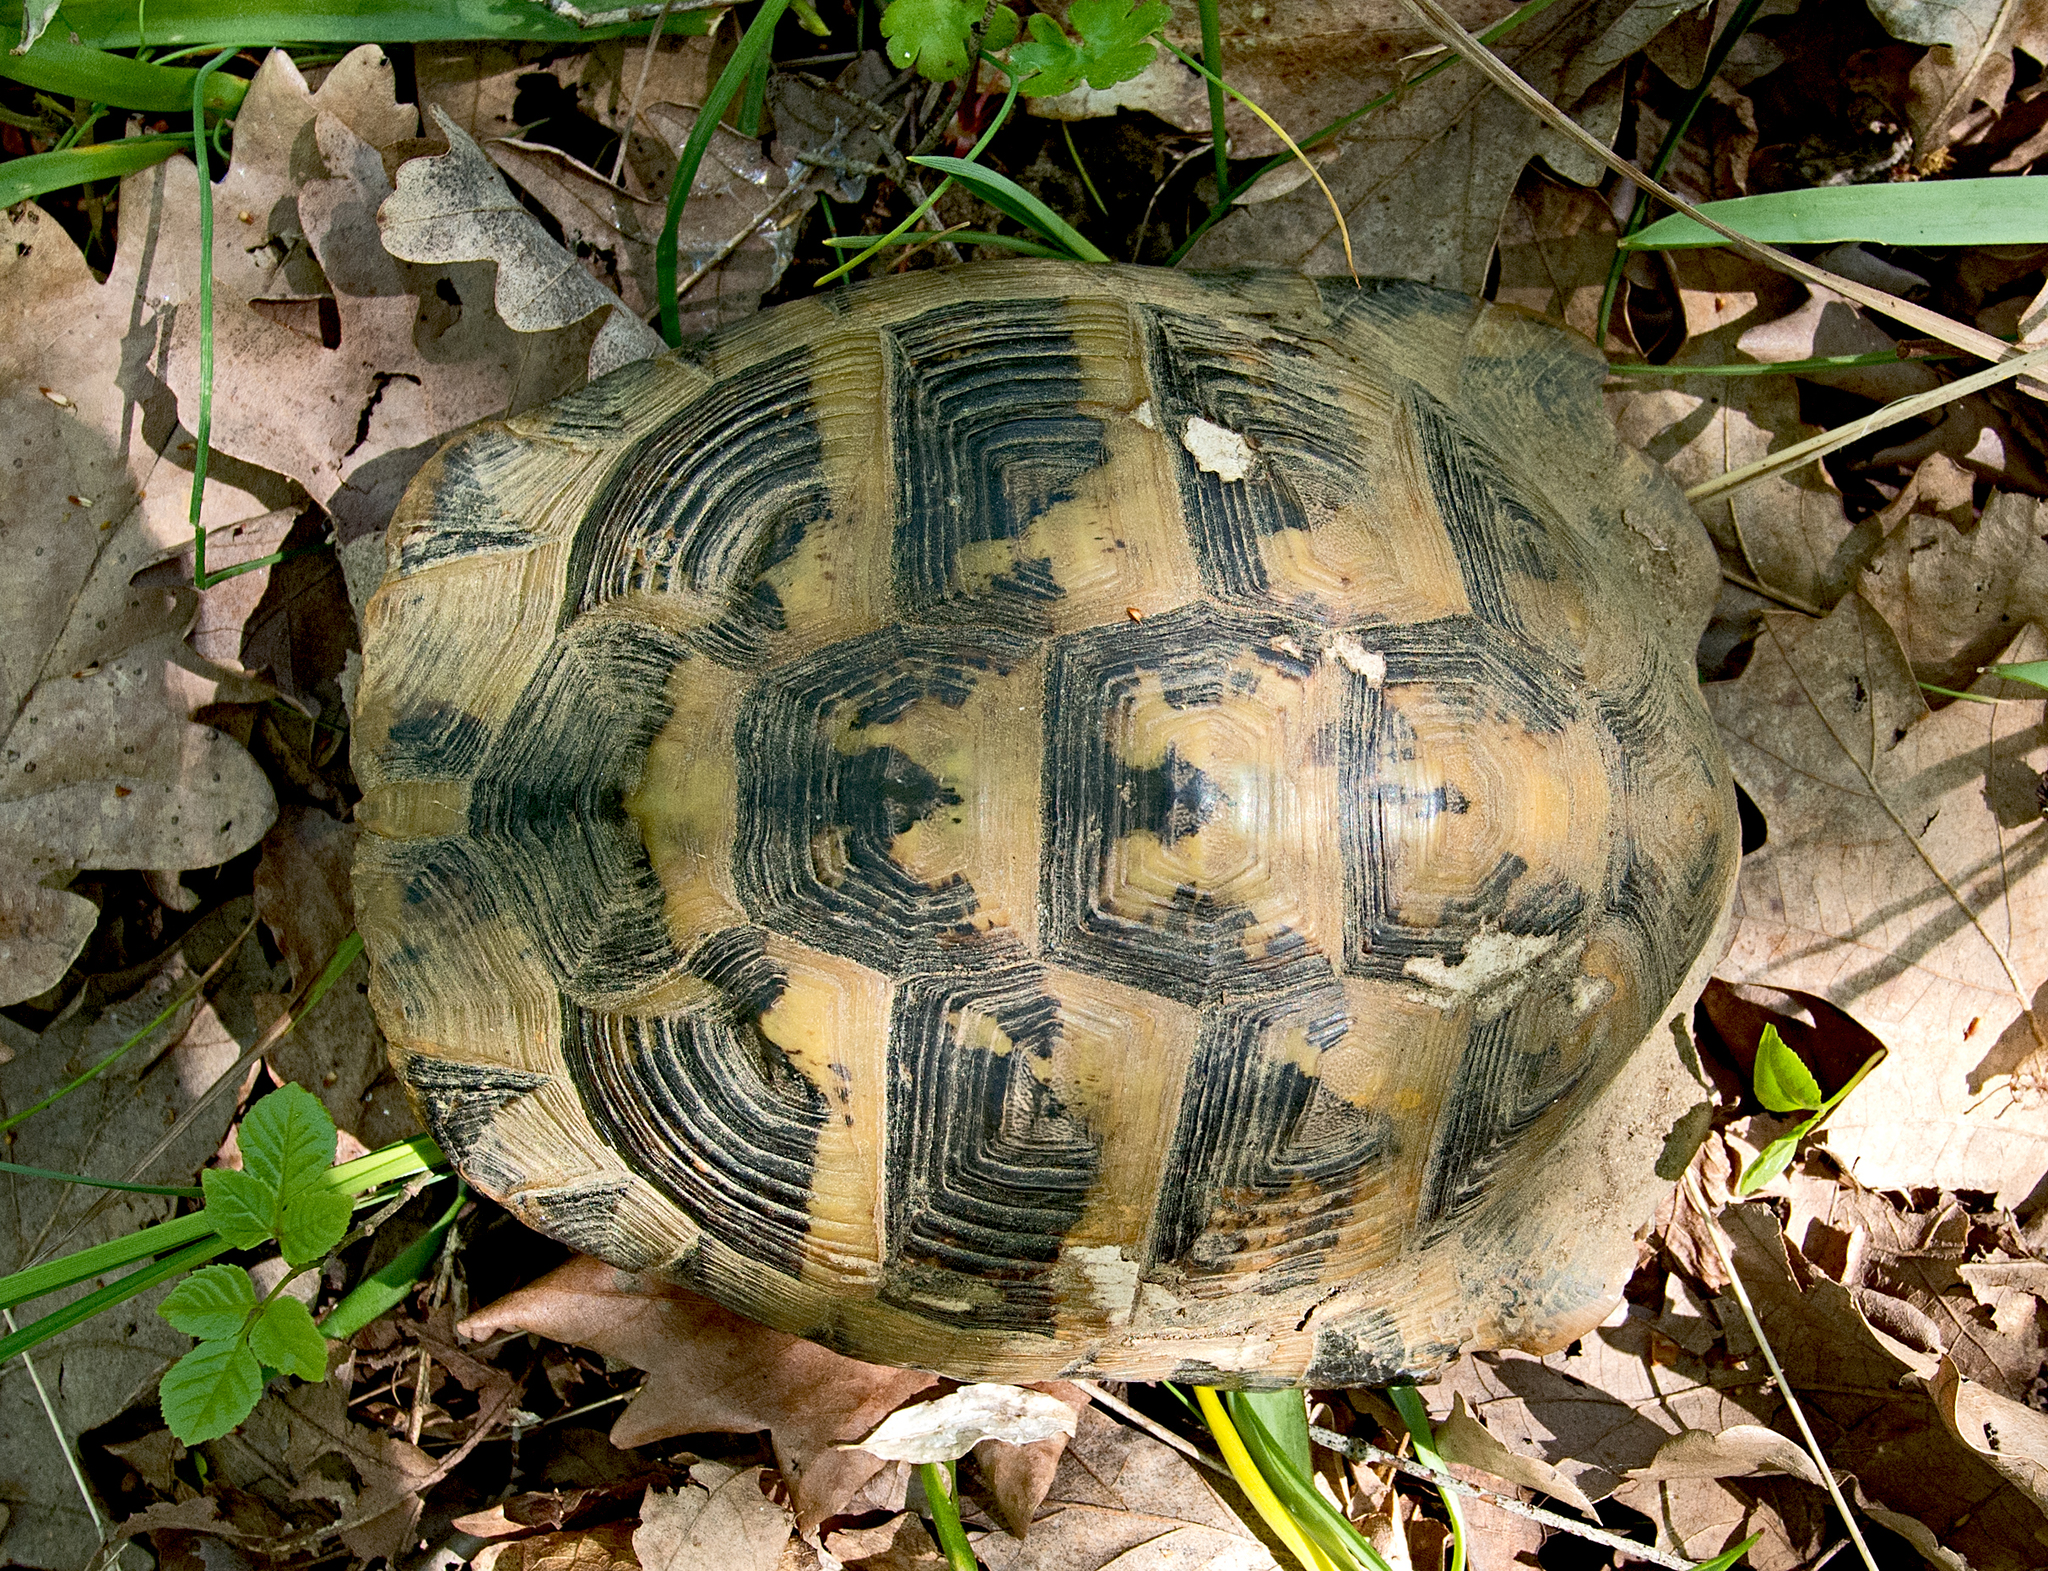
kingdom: Animalia
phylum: Chordata
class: Testudines
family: Testudinidae
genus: Testudo
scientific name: Testudo hermanni
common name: Hermann's tortoise
